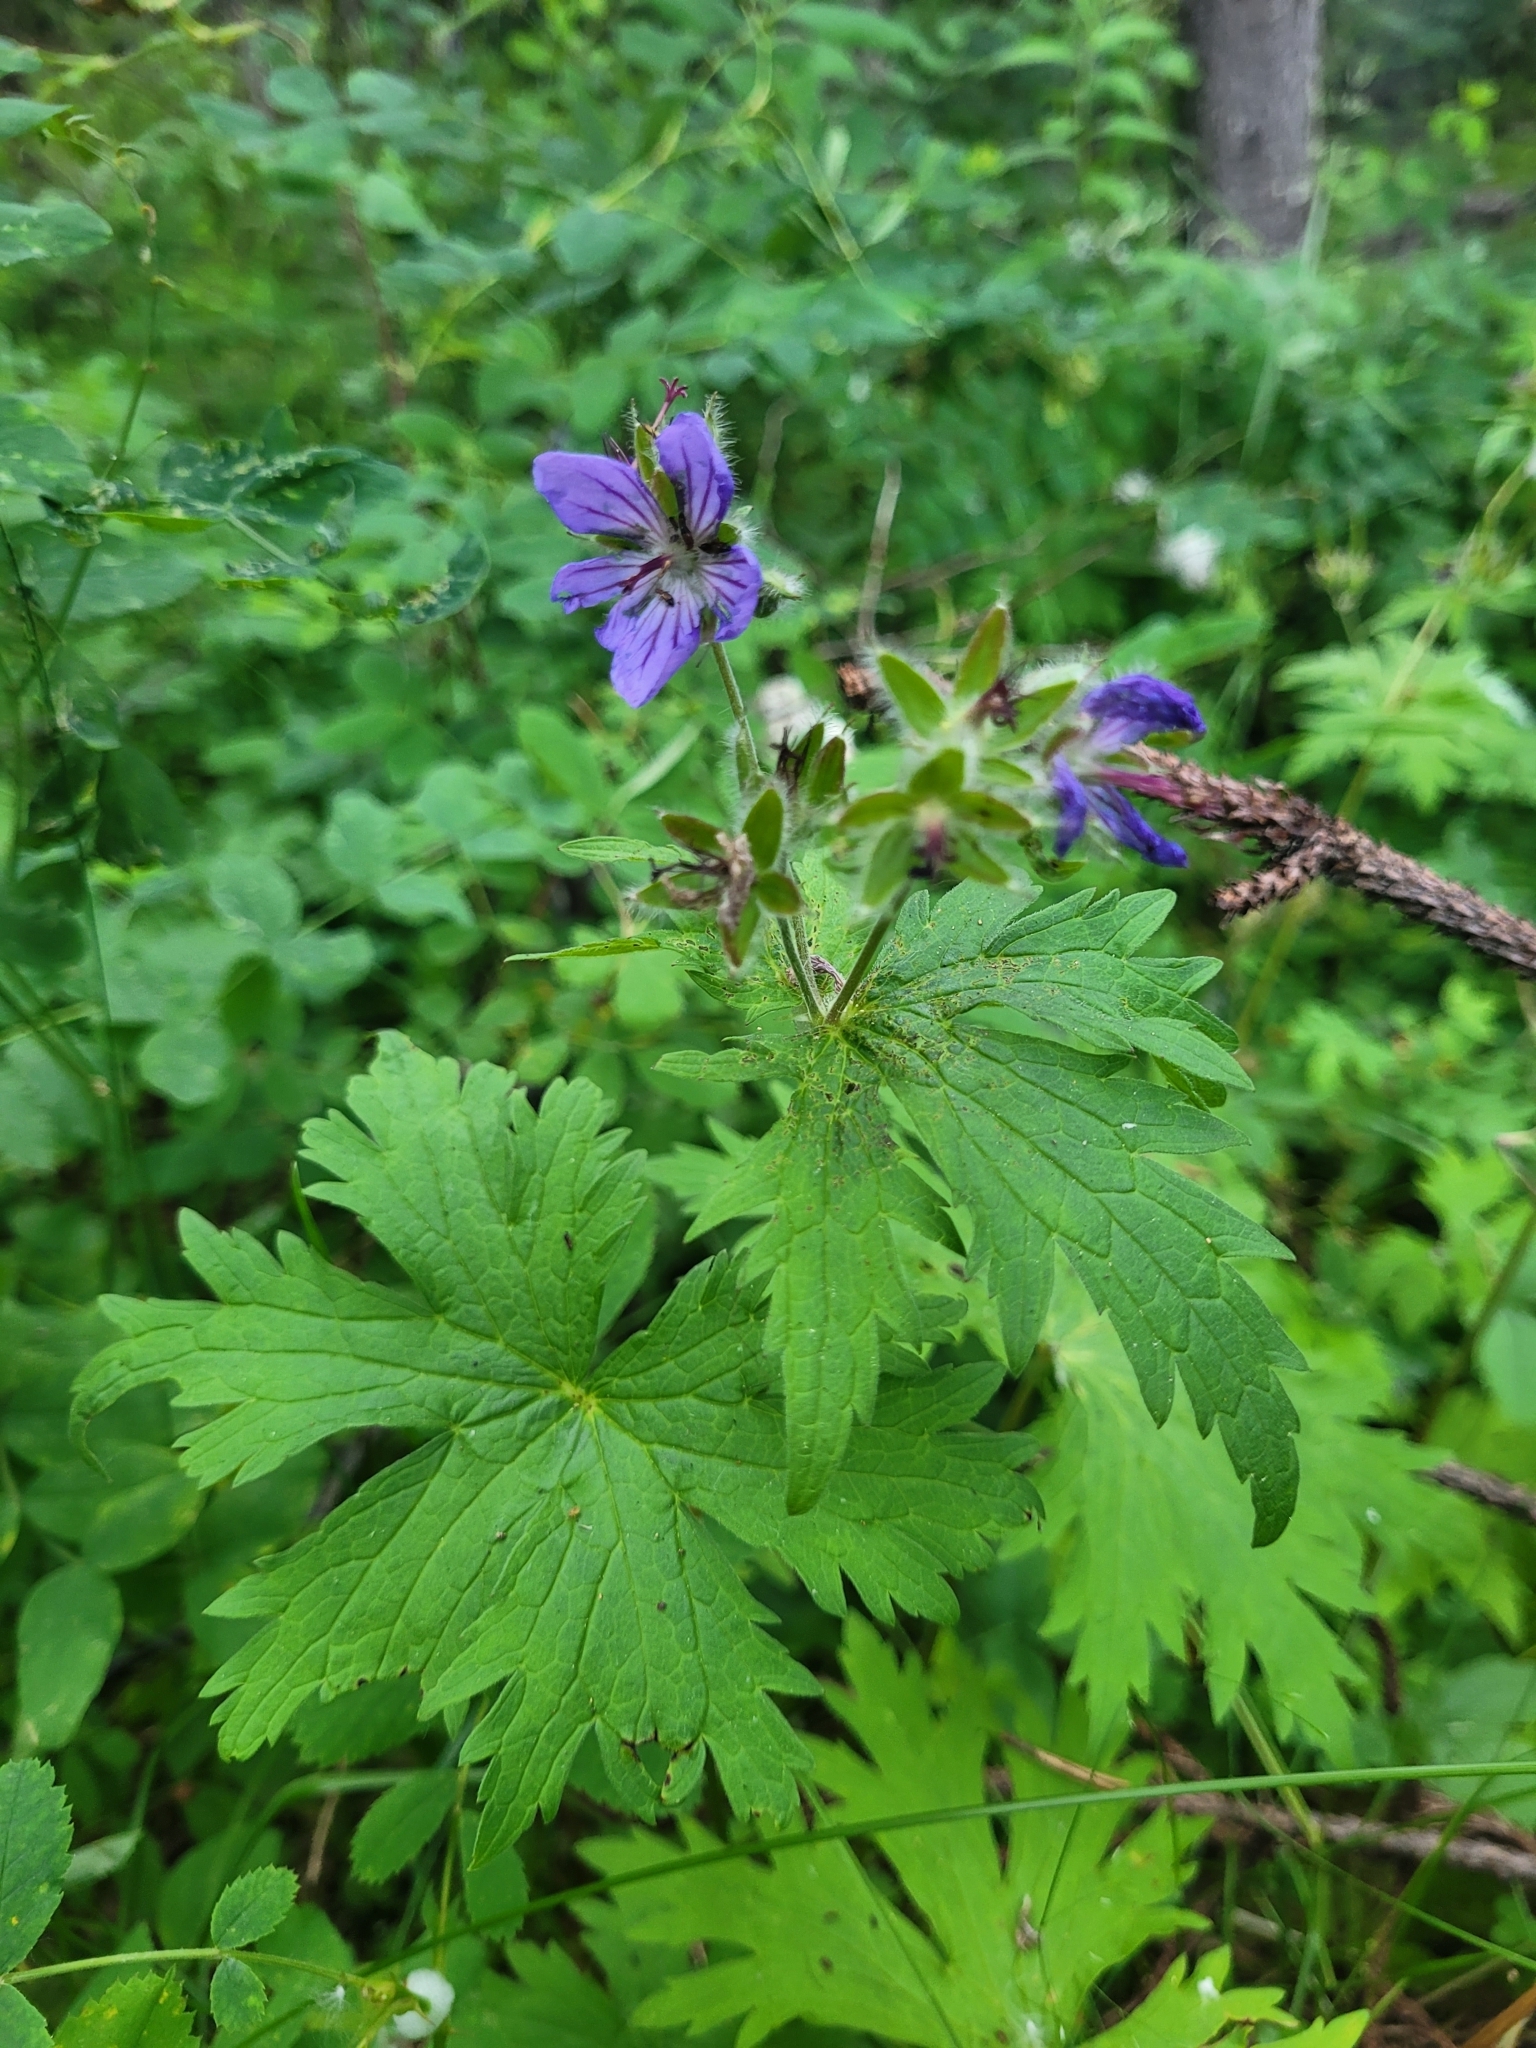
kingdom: Plantae
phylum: Tracheophyta
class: Magnoliopsida
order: Geraniales
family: Geraniaceae
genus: Geranium
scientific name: Geranium erianthum
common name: Northern crane's-bill
